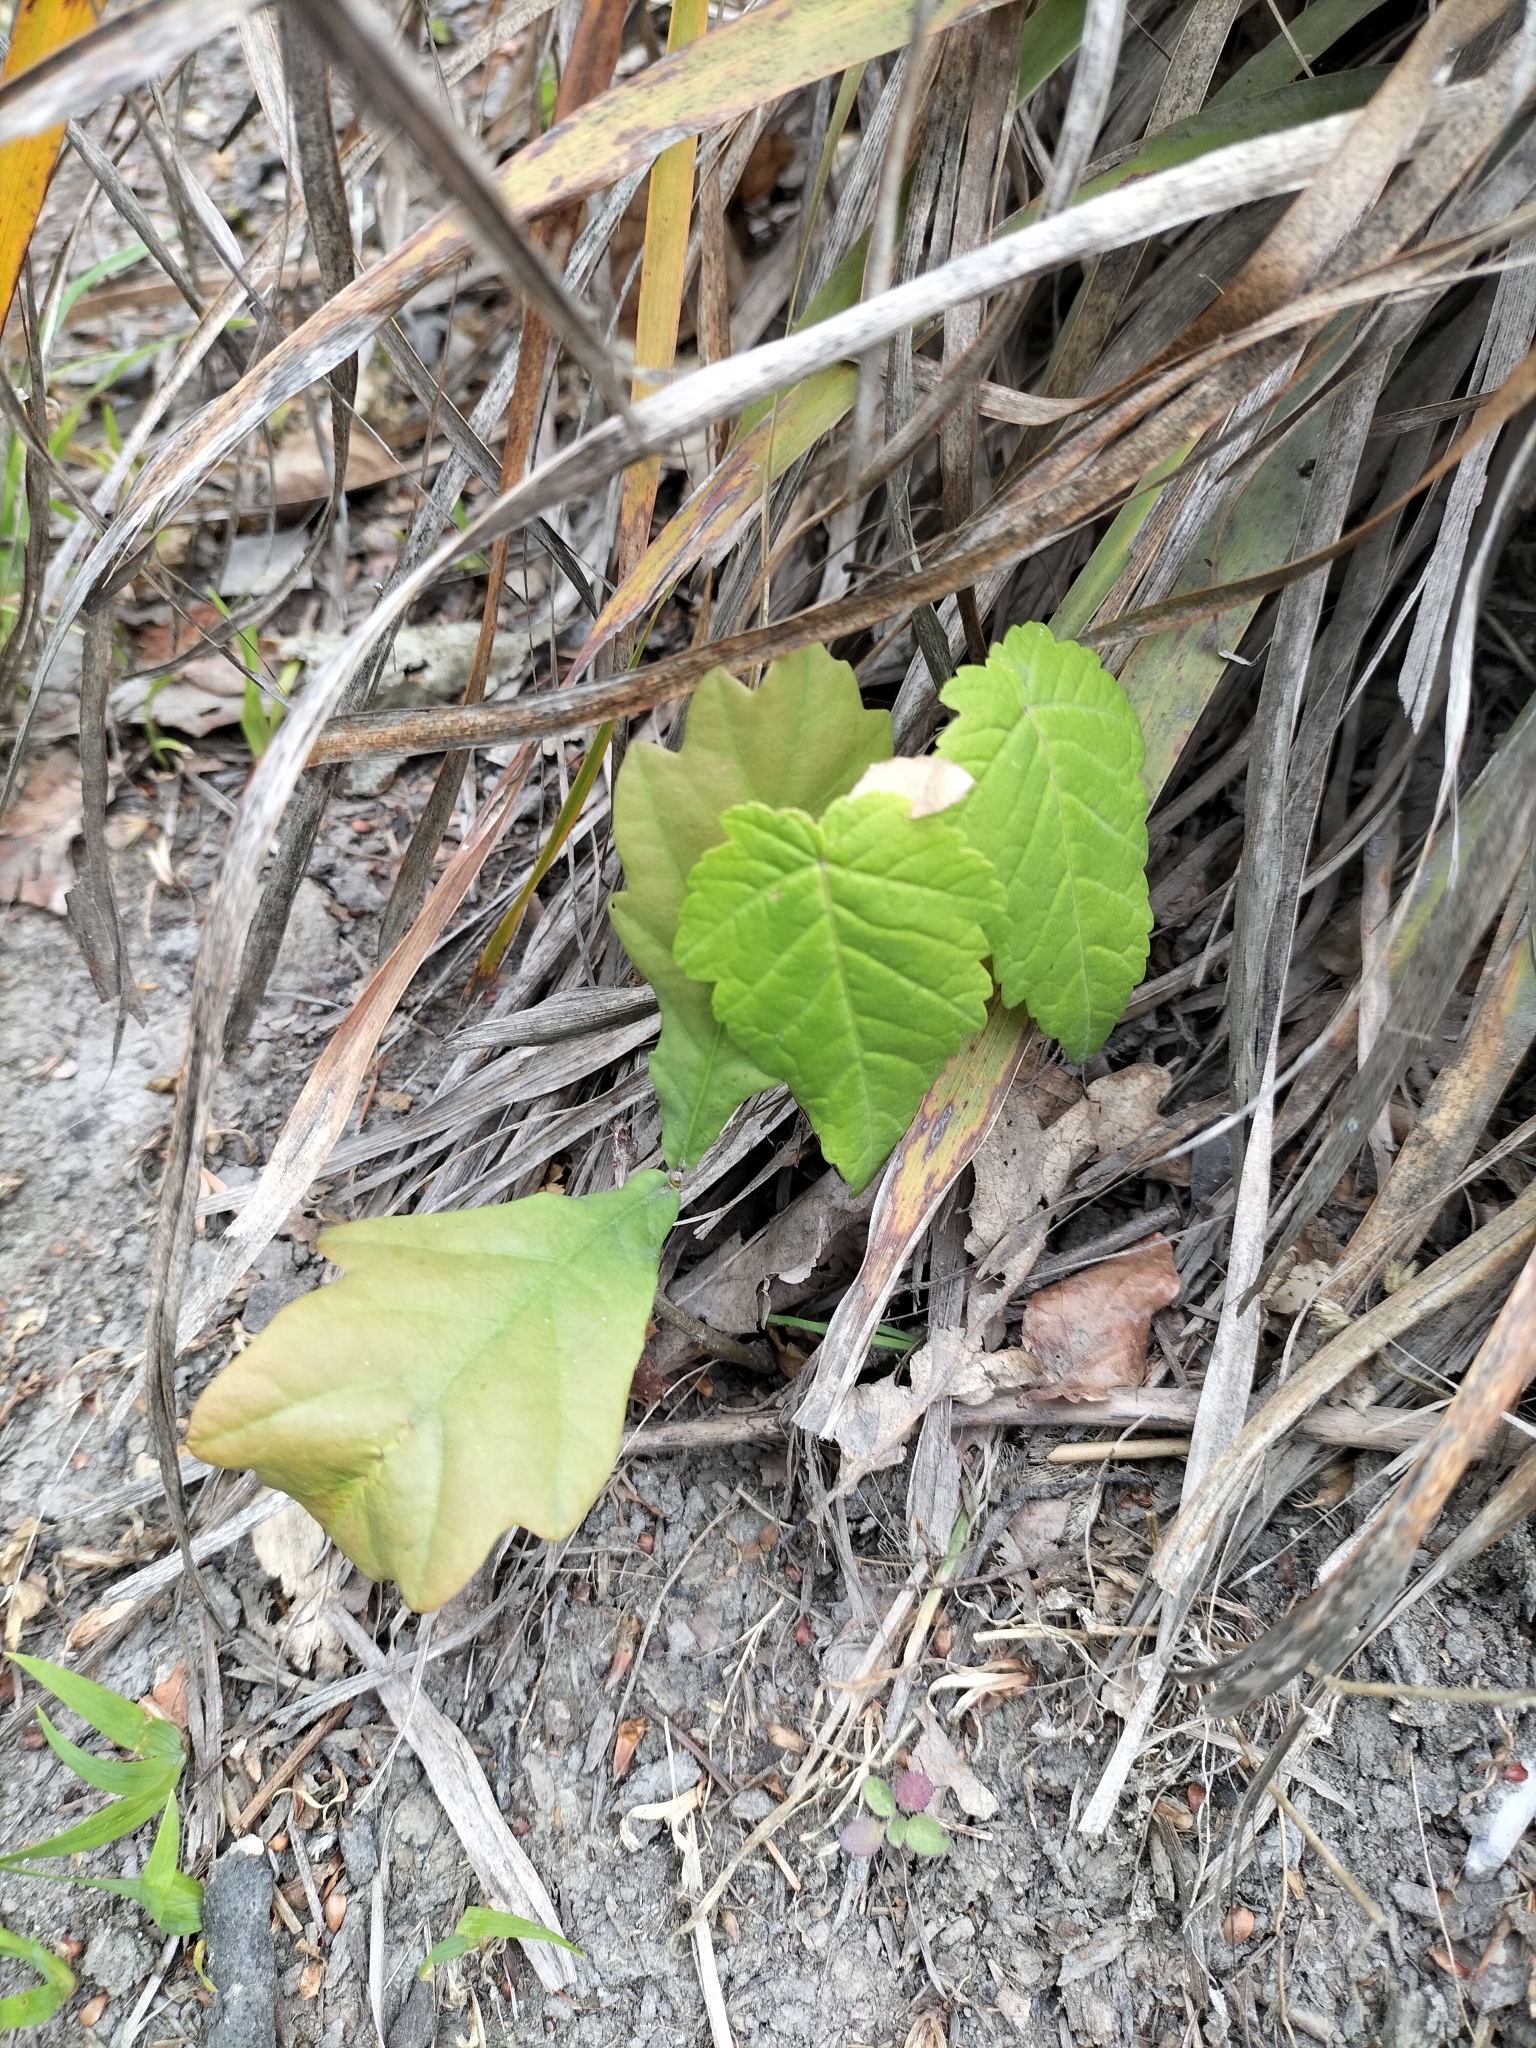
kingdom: Plantae
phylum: Tracheophyta
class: Magnoliopsida
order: Sapindales
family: Sapindaceae
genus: Acer
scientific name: Acer pseudoplatanus
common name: Sycamore
